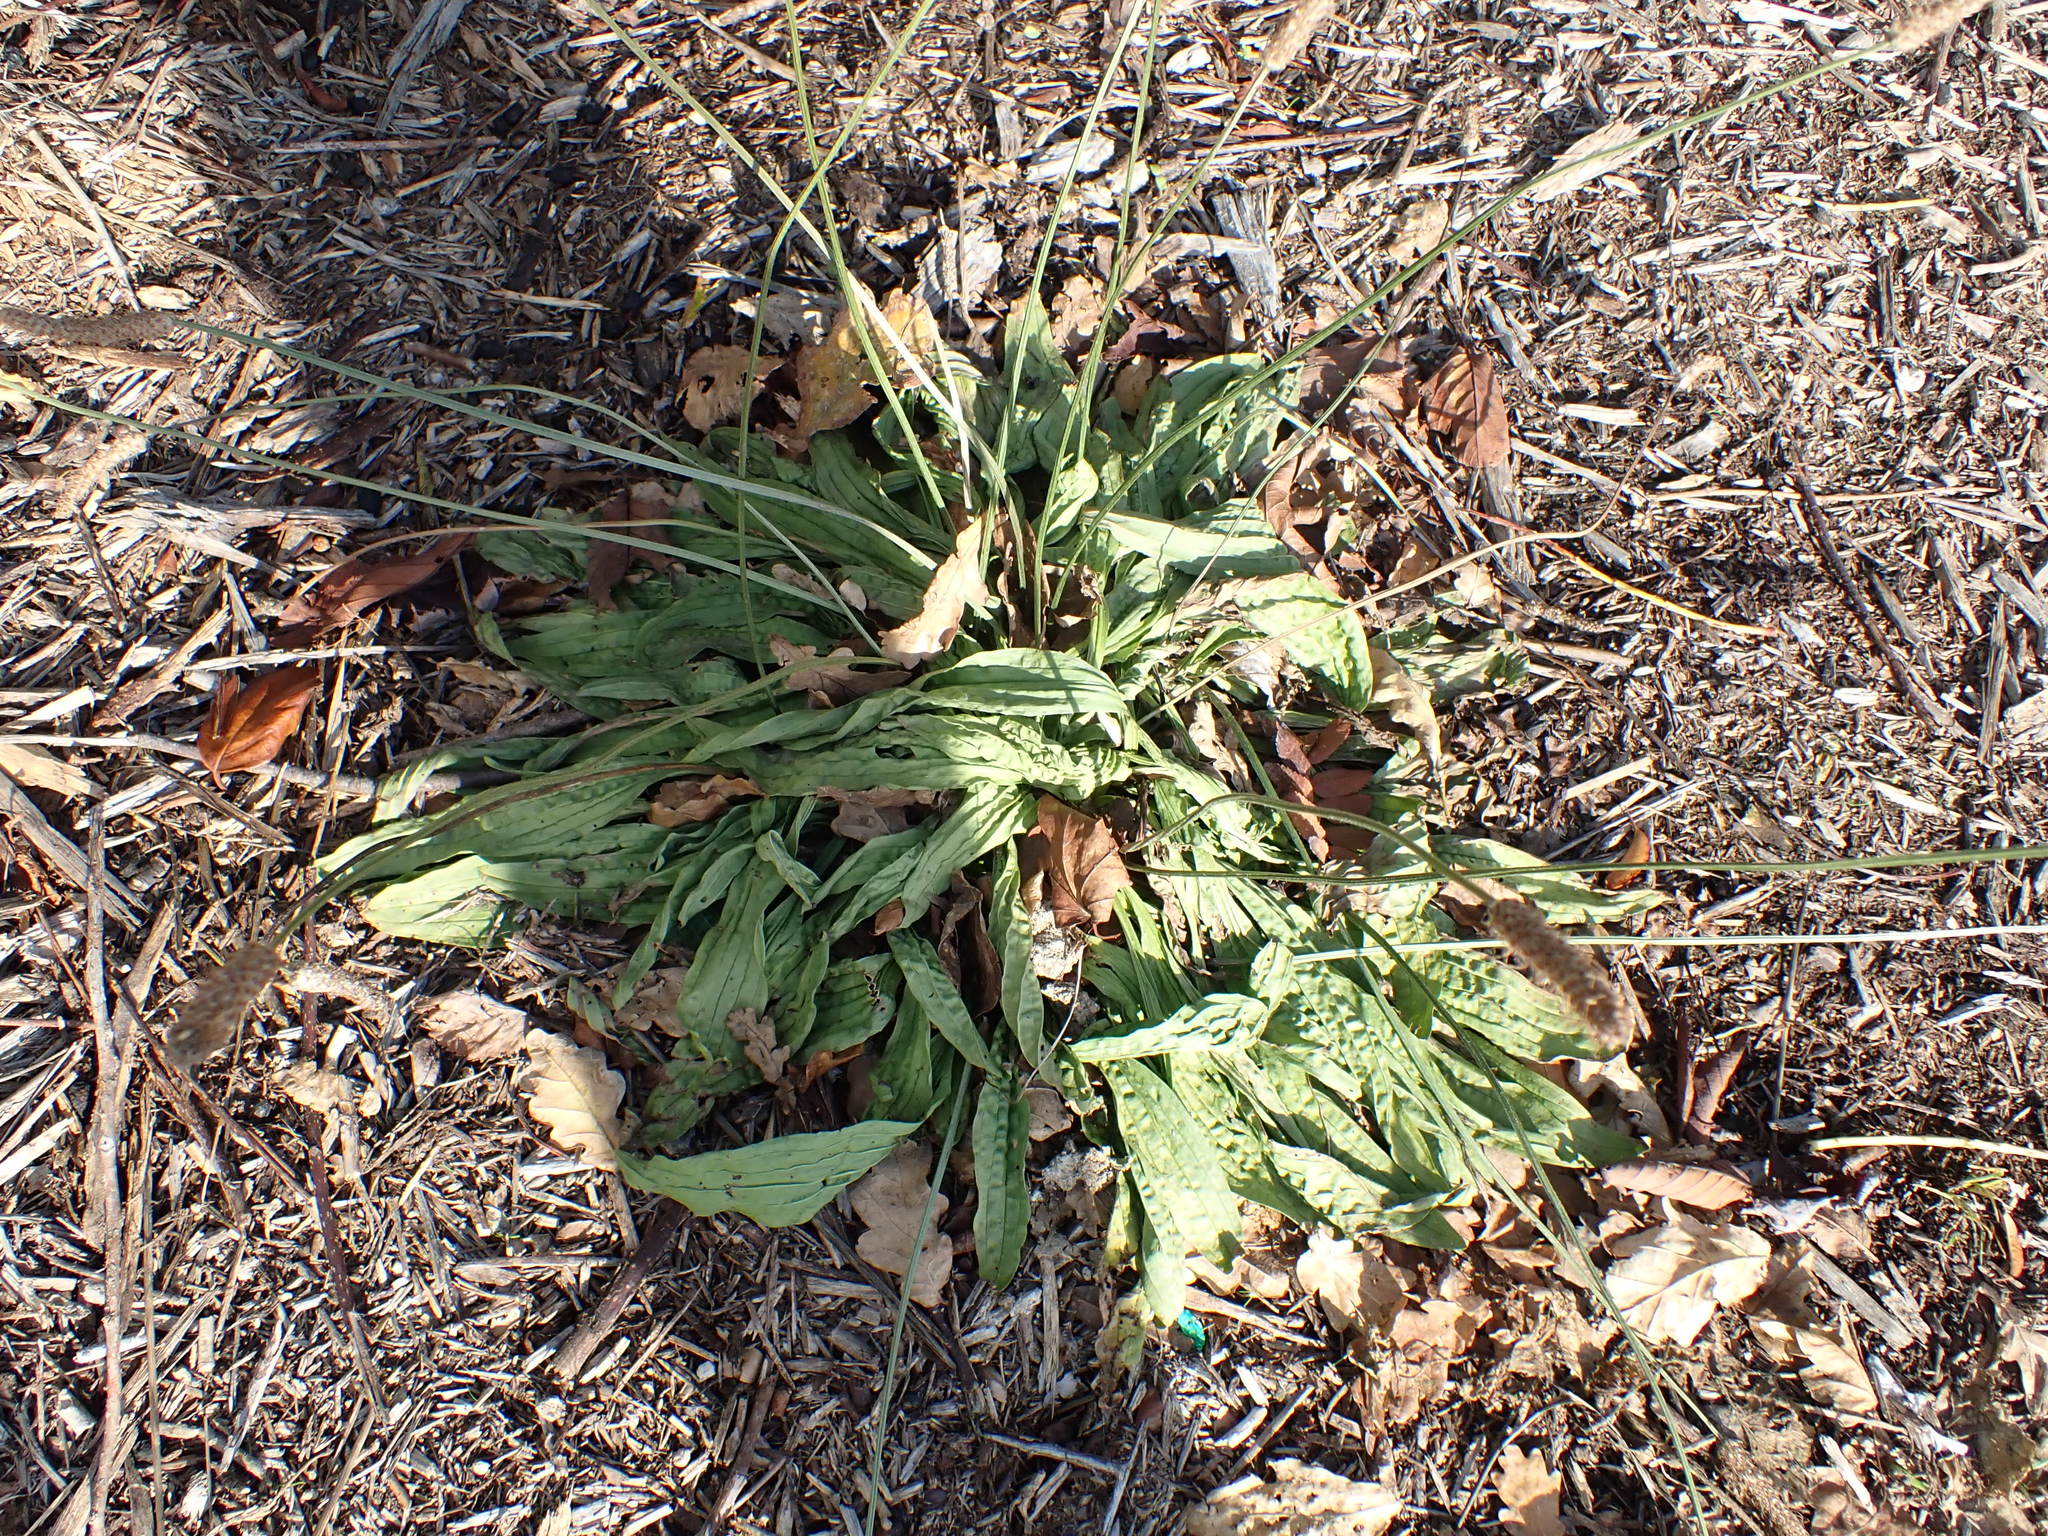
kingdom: Plantae
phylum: Tracheophyta
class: Magnoliopsida
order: Lamiales
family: Plantaginaceae
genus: Plantago
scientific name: Plantago lanceolata
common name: Ribwort plantain
